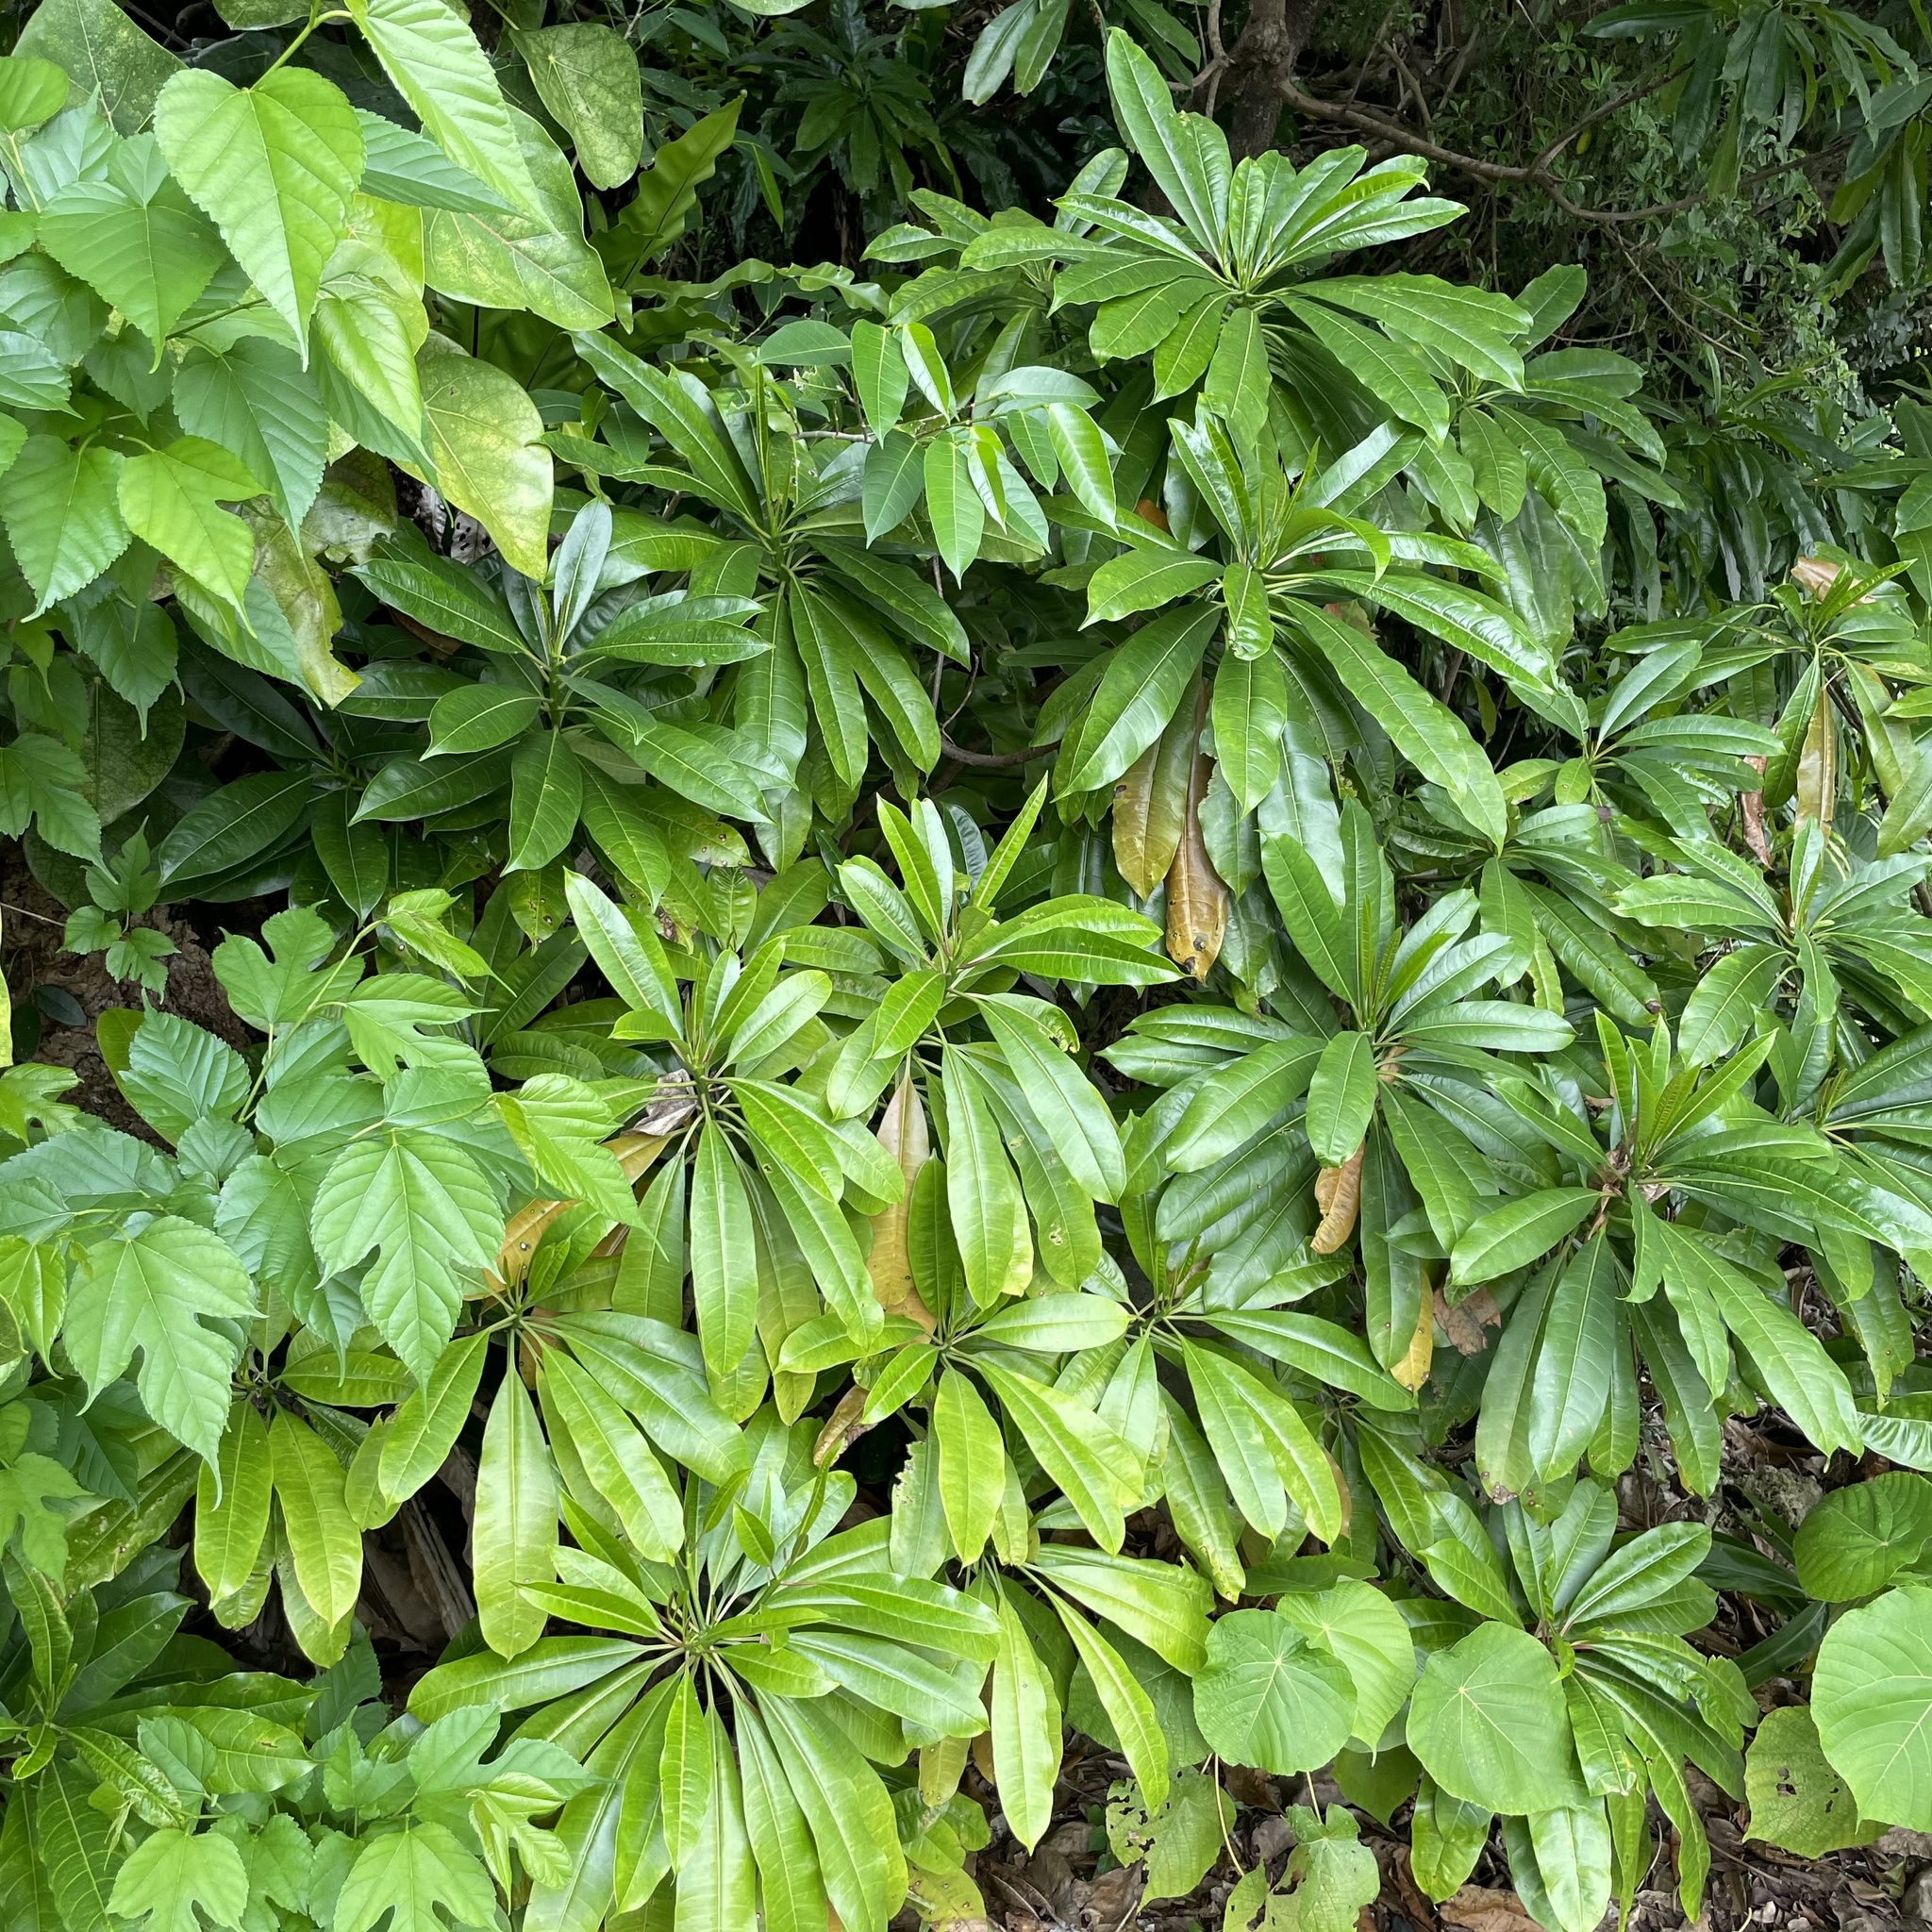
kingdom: Plantae
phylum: Tracheophyta
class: Magnoliopsida
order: Gentianales
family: Apocynaceae
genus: Cerbera
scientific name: Cerbera manghas
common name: Reva
